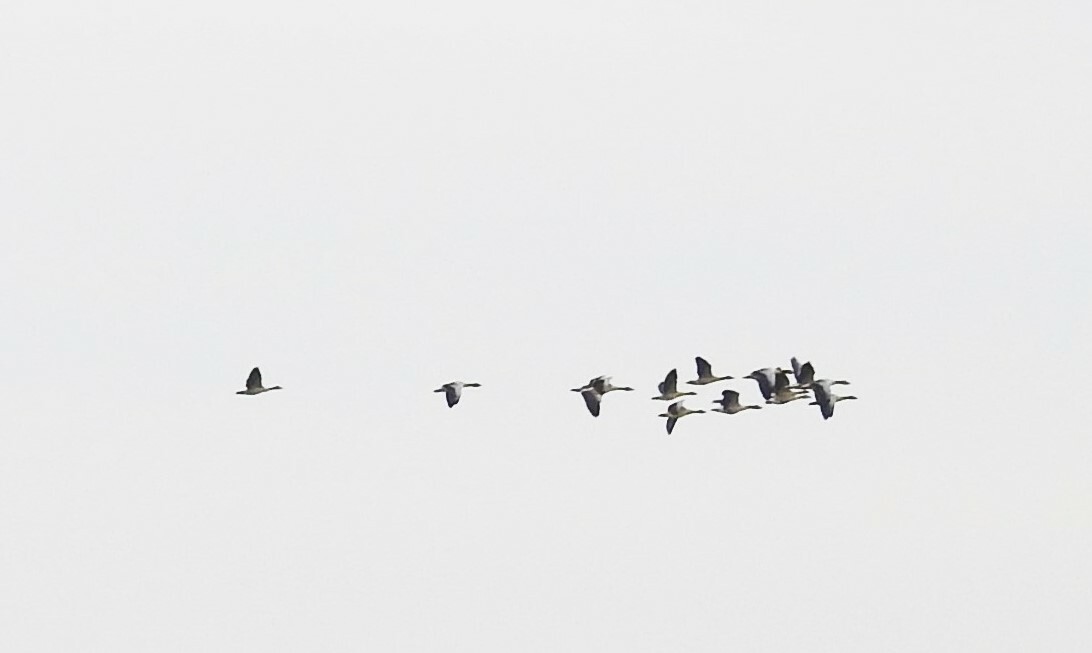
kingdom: Animalia
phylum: Chordata
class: Aves
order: Anseriformes
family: Anatidae
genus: Anser
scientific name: Anser anser
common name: Greylag goose
